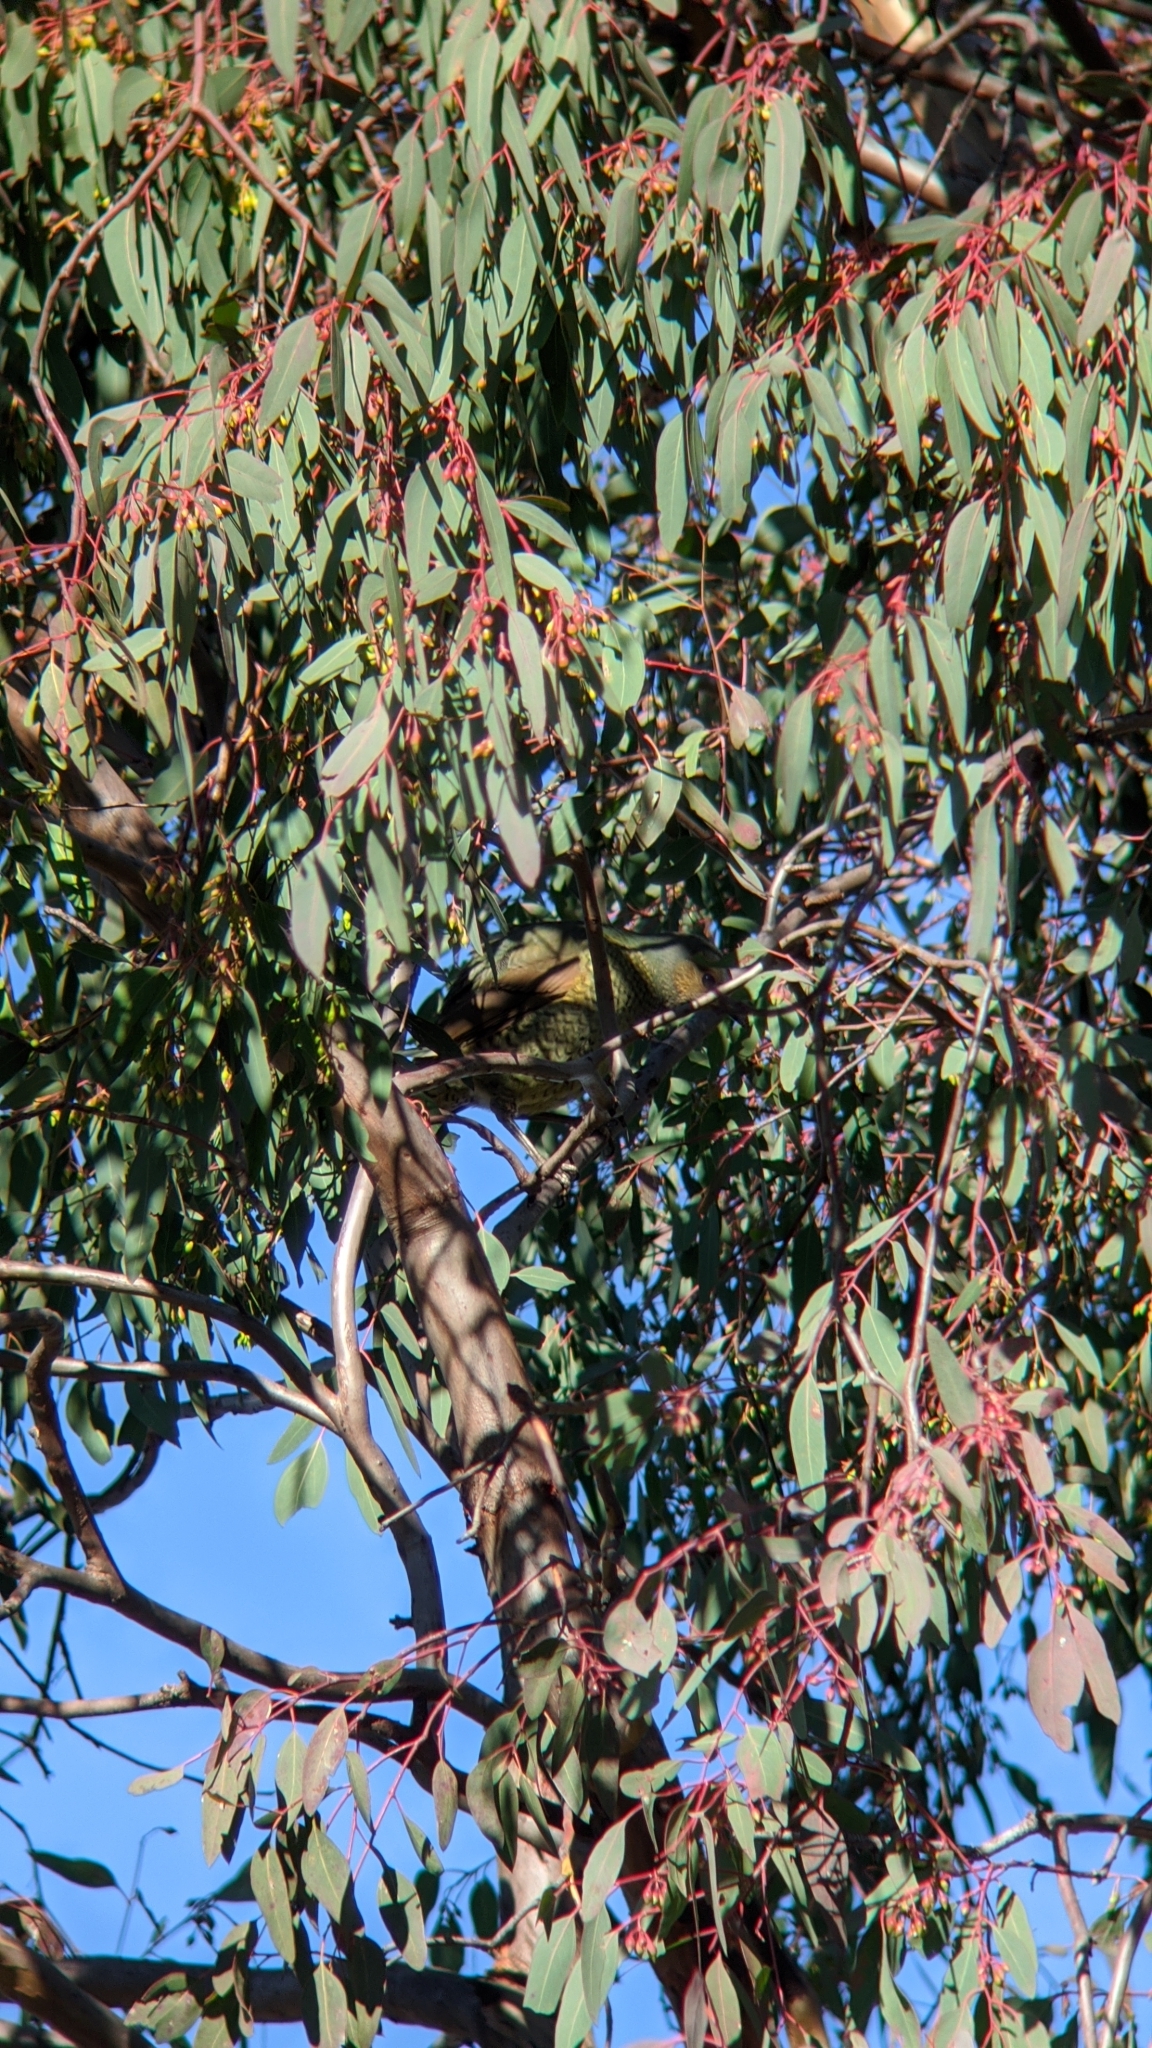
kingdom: Animalia
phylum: Chordata
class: Aves
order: Passeriformes
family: Ptilonorhynchidae
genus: Ptilonorhynchus
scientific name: Ptilonorhynchus violaceus
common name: Satin bowerbird
